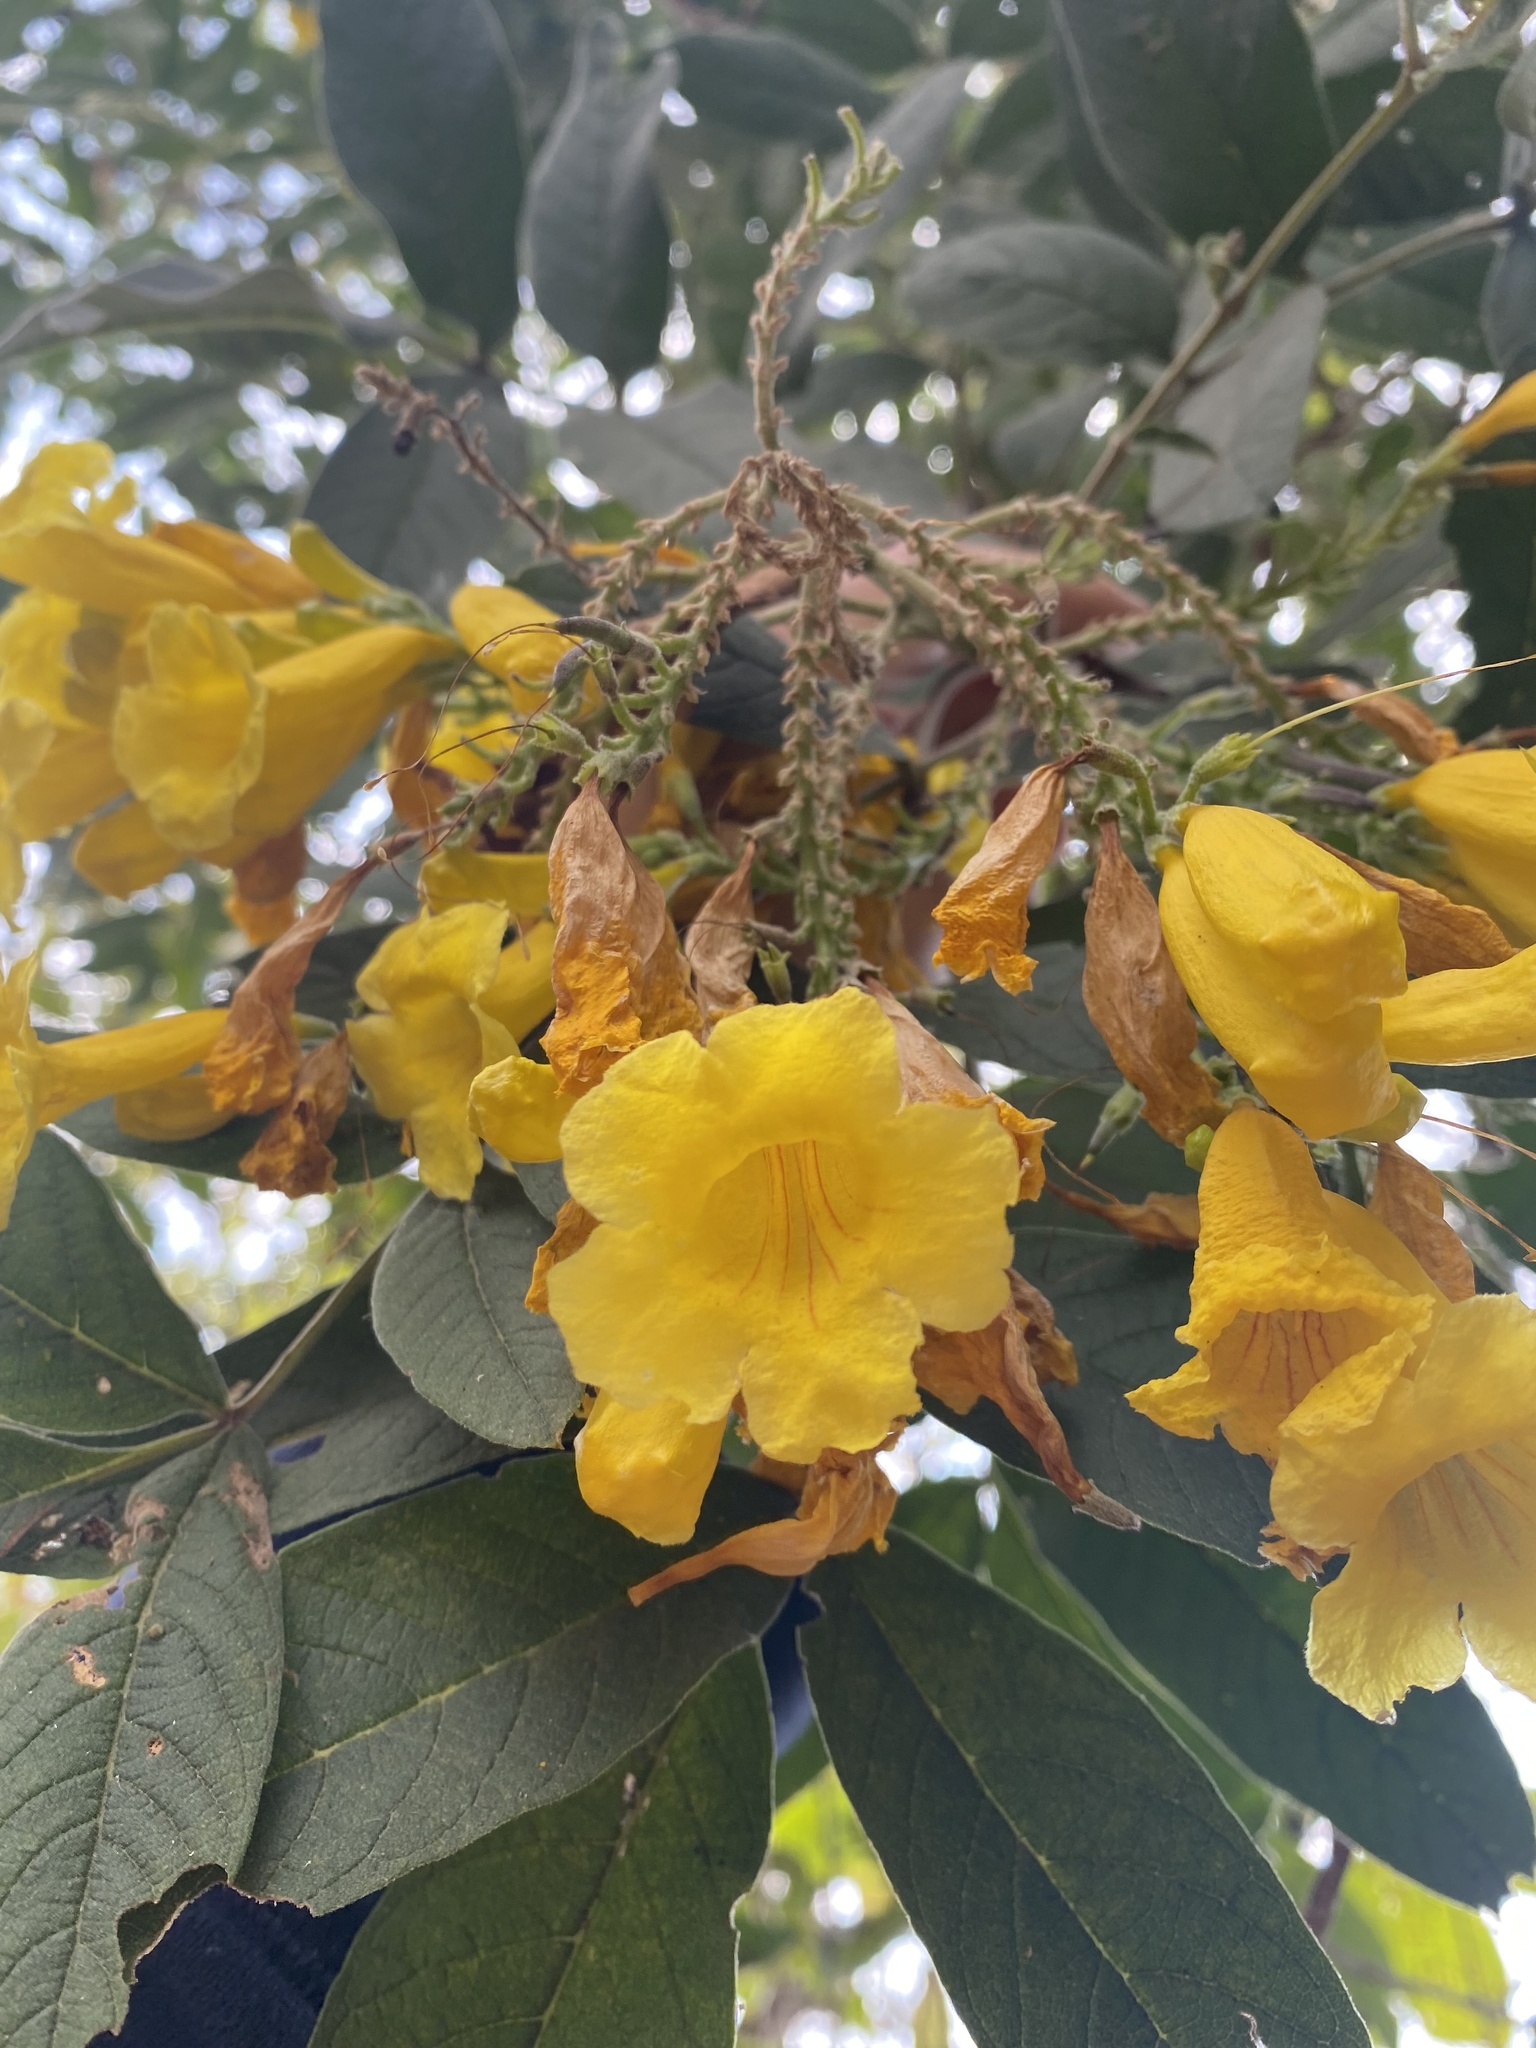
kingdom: Plantae
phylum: Tracheophyta
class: Magnoliopsida
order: Lamiales
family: Bignoniaceae
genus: Tecoma
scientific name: Tecoma stans
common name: Yellow trumpetbush
